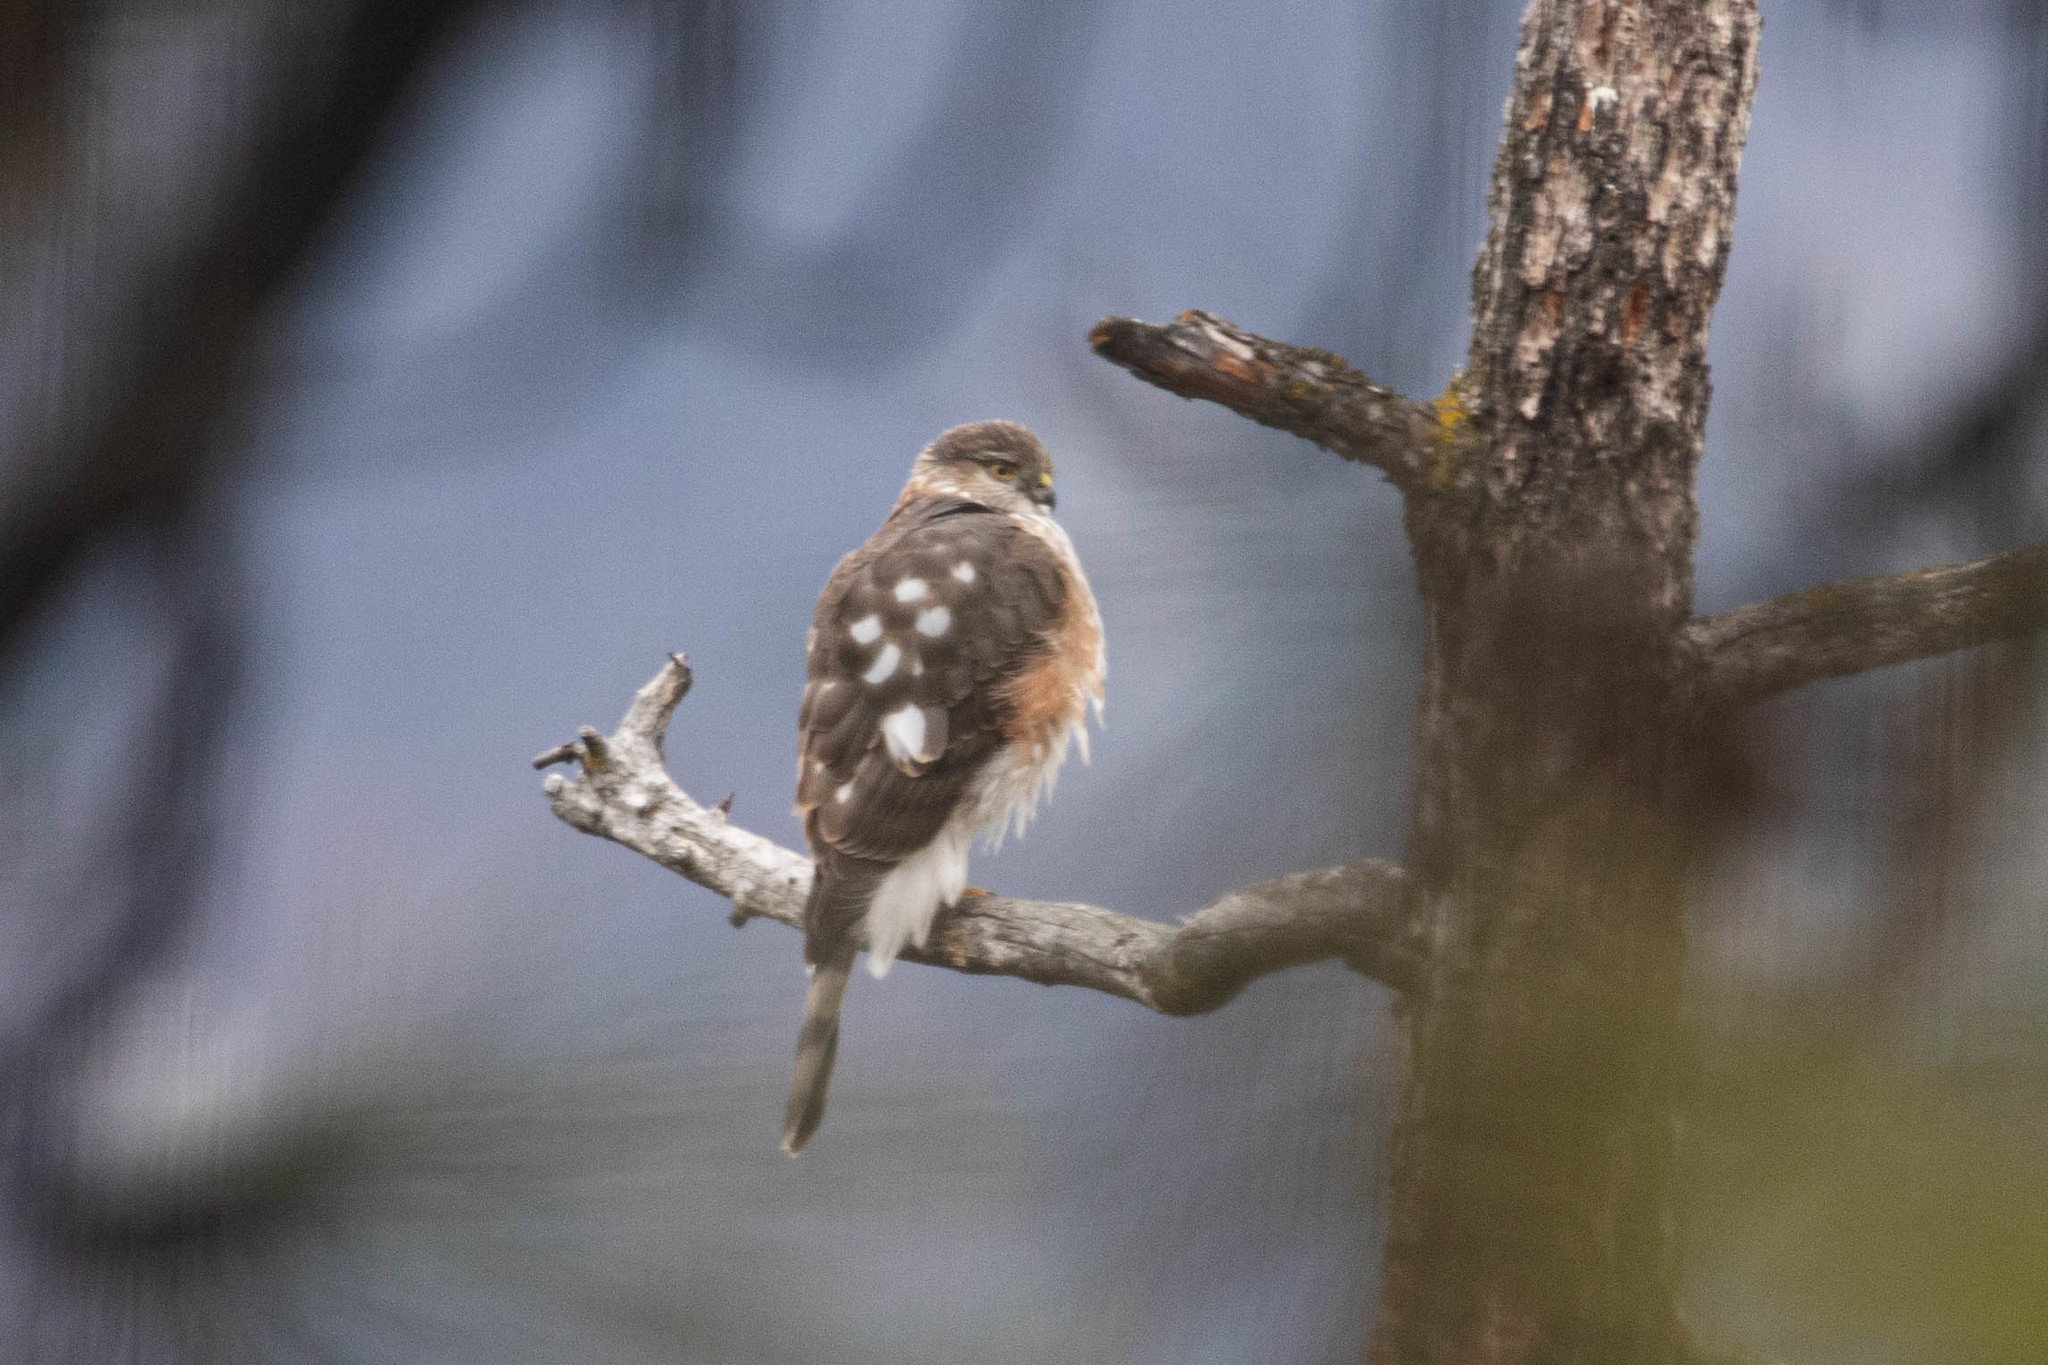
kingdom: Animalia
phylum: Chordata
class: Aves
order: Accipitriformes
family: Accipitridae
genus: Accipiter
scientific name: Accipiter striatus
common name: Sharp-shinned hawk
